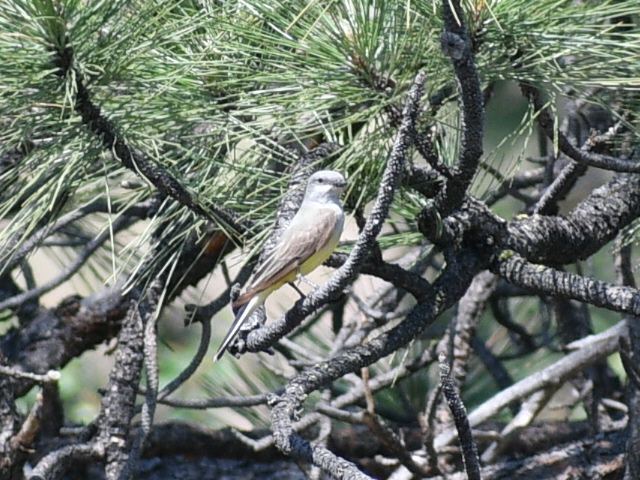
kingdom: Animalia
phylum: Chordata
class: Aves
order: Passeriformes
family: Tyrannidae
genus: Tyrannus
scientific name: Tyrannus verticalis
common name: Western kingbird
